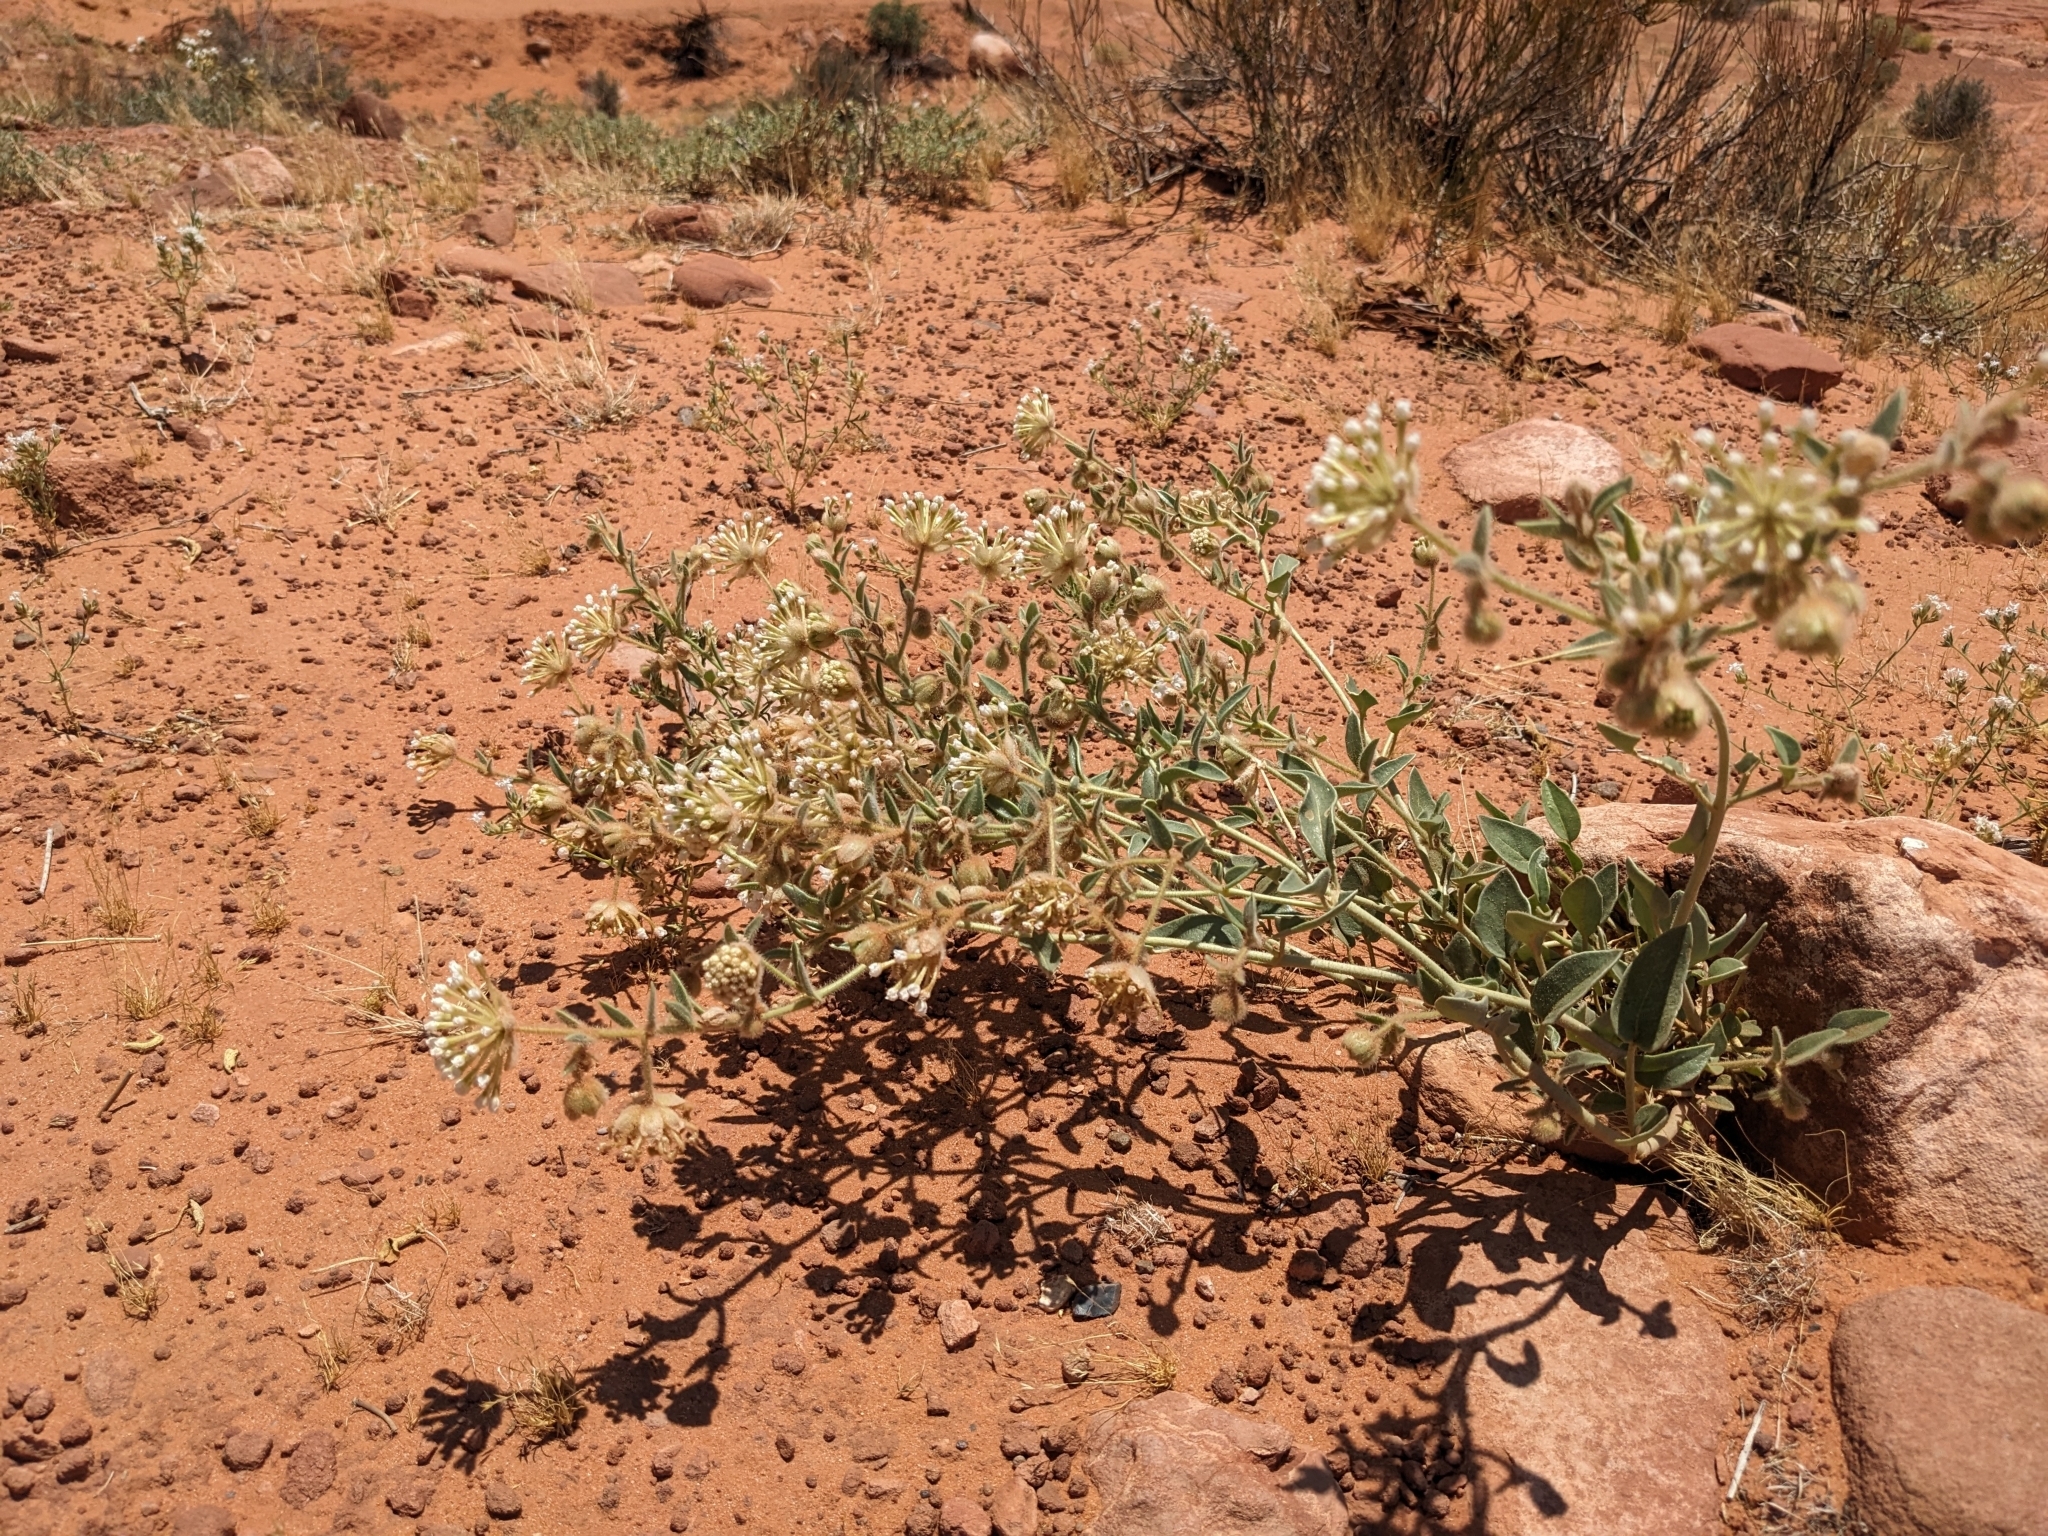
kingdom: Plantae
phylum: Tracheophyta
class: Magnoliopsida
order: Caryophyllales
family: Nyctaginaceae
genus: Abronia
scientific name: Abronia elliptica
